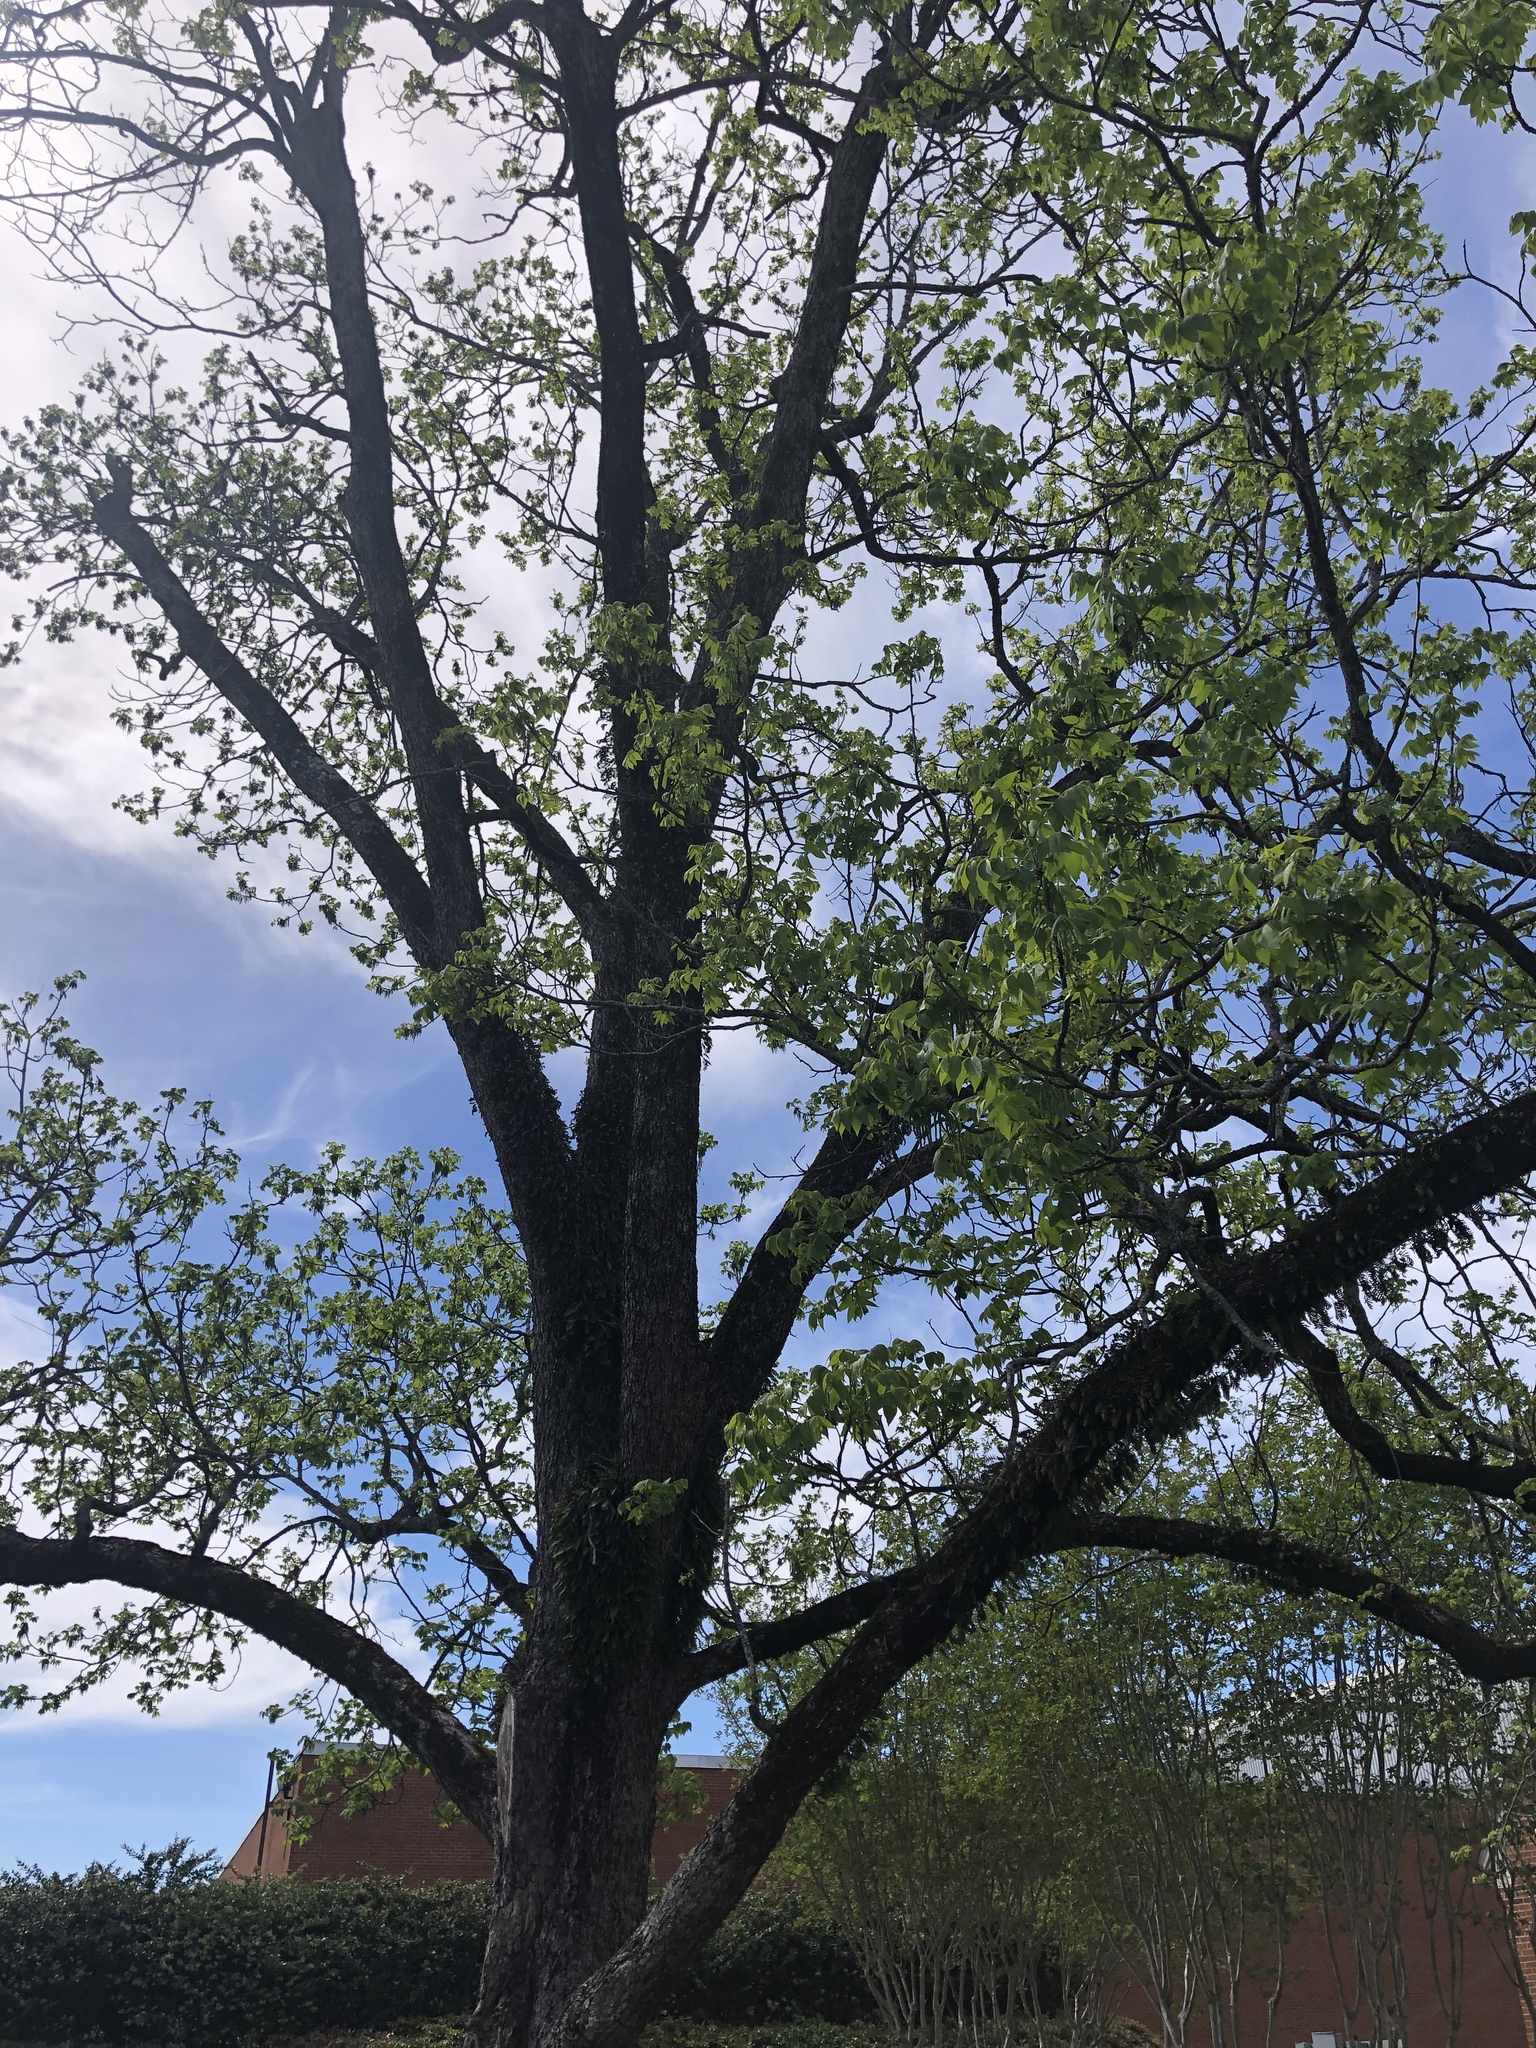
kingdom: Plantae
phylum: Tracheophyta
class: Magnoliopsida
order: Fagales
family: Juglandaceae
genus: Carya
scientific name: Carya illinoinensis
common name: Pecan
